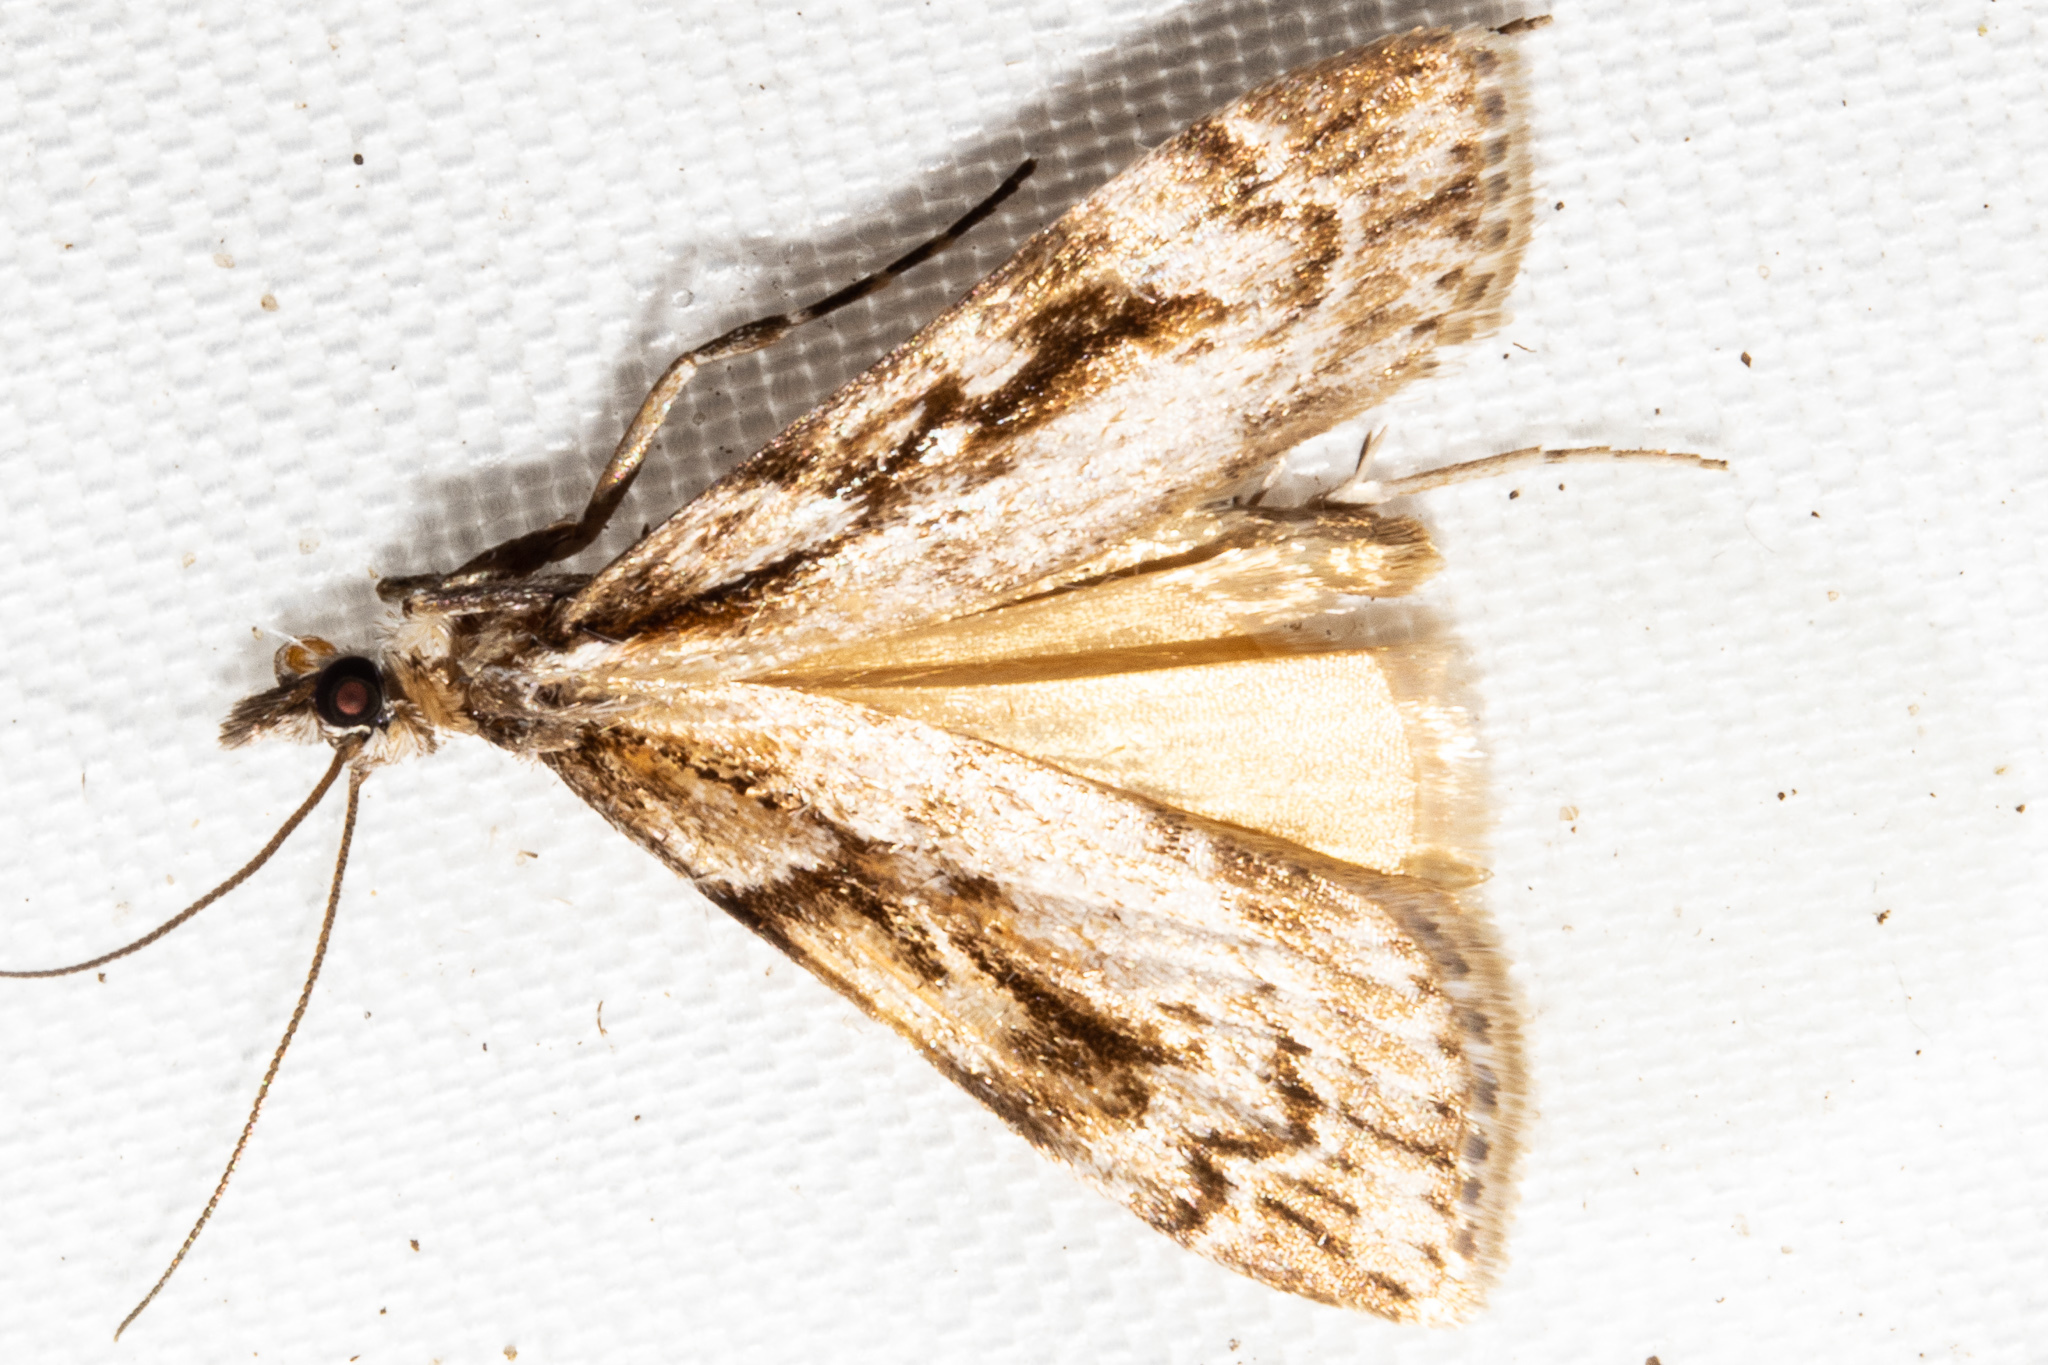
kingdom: Animalia
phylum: Arthropoda
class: Insecta
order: Lepidoptera
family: Crambidae
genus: Scoparia
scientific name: Scoparia cyameuta
